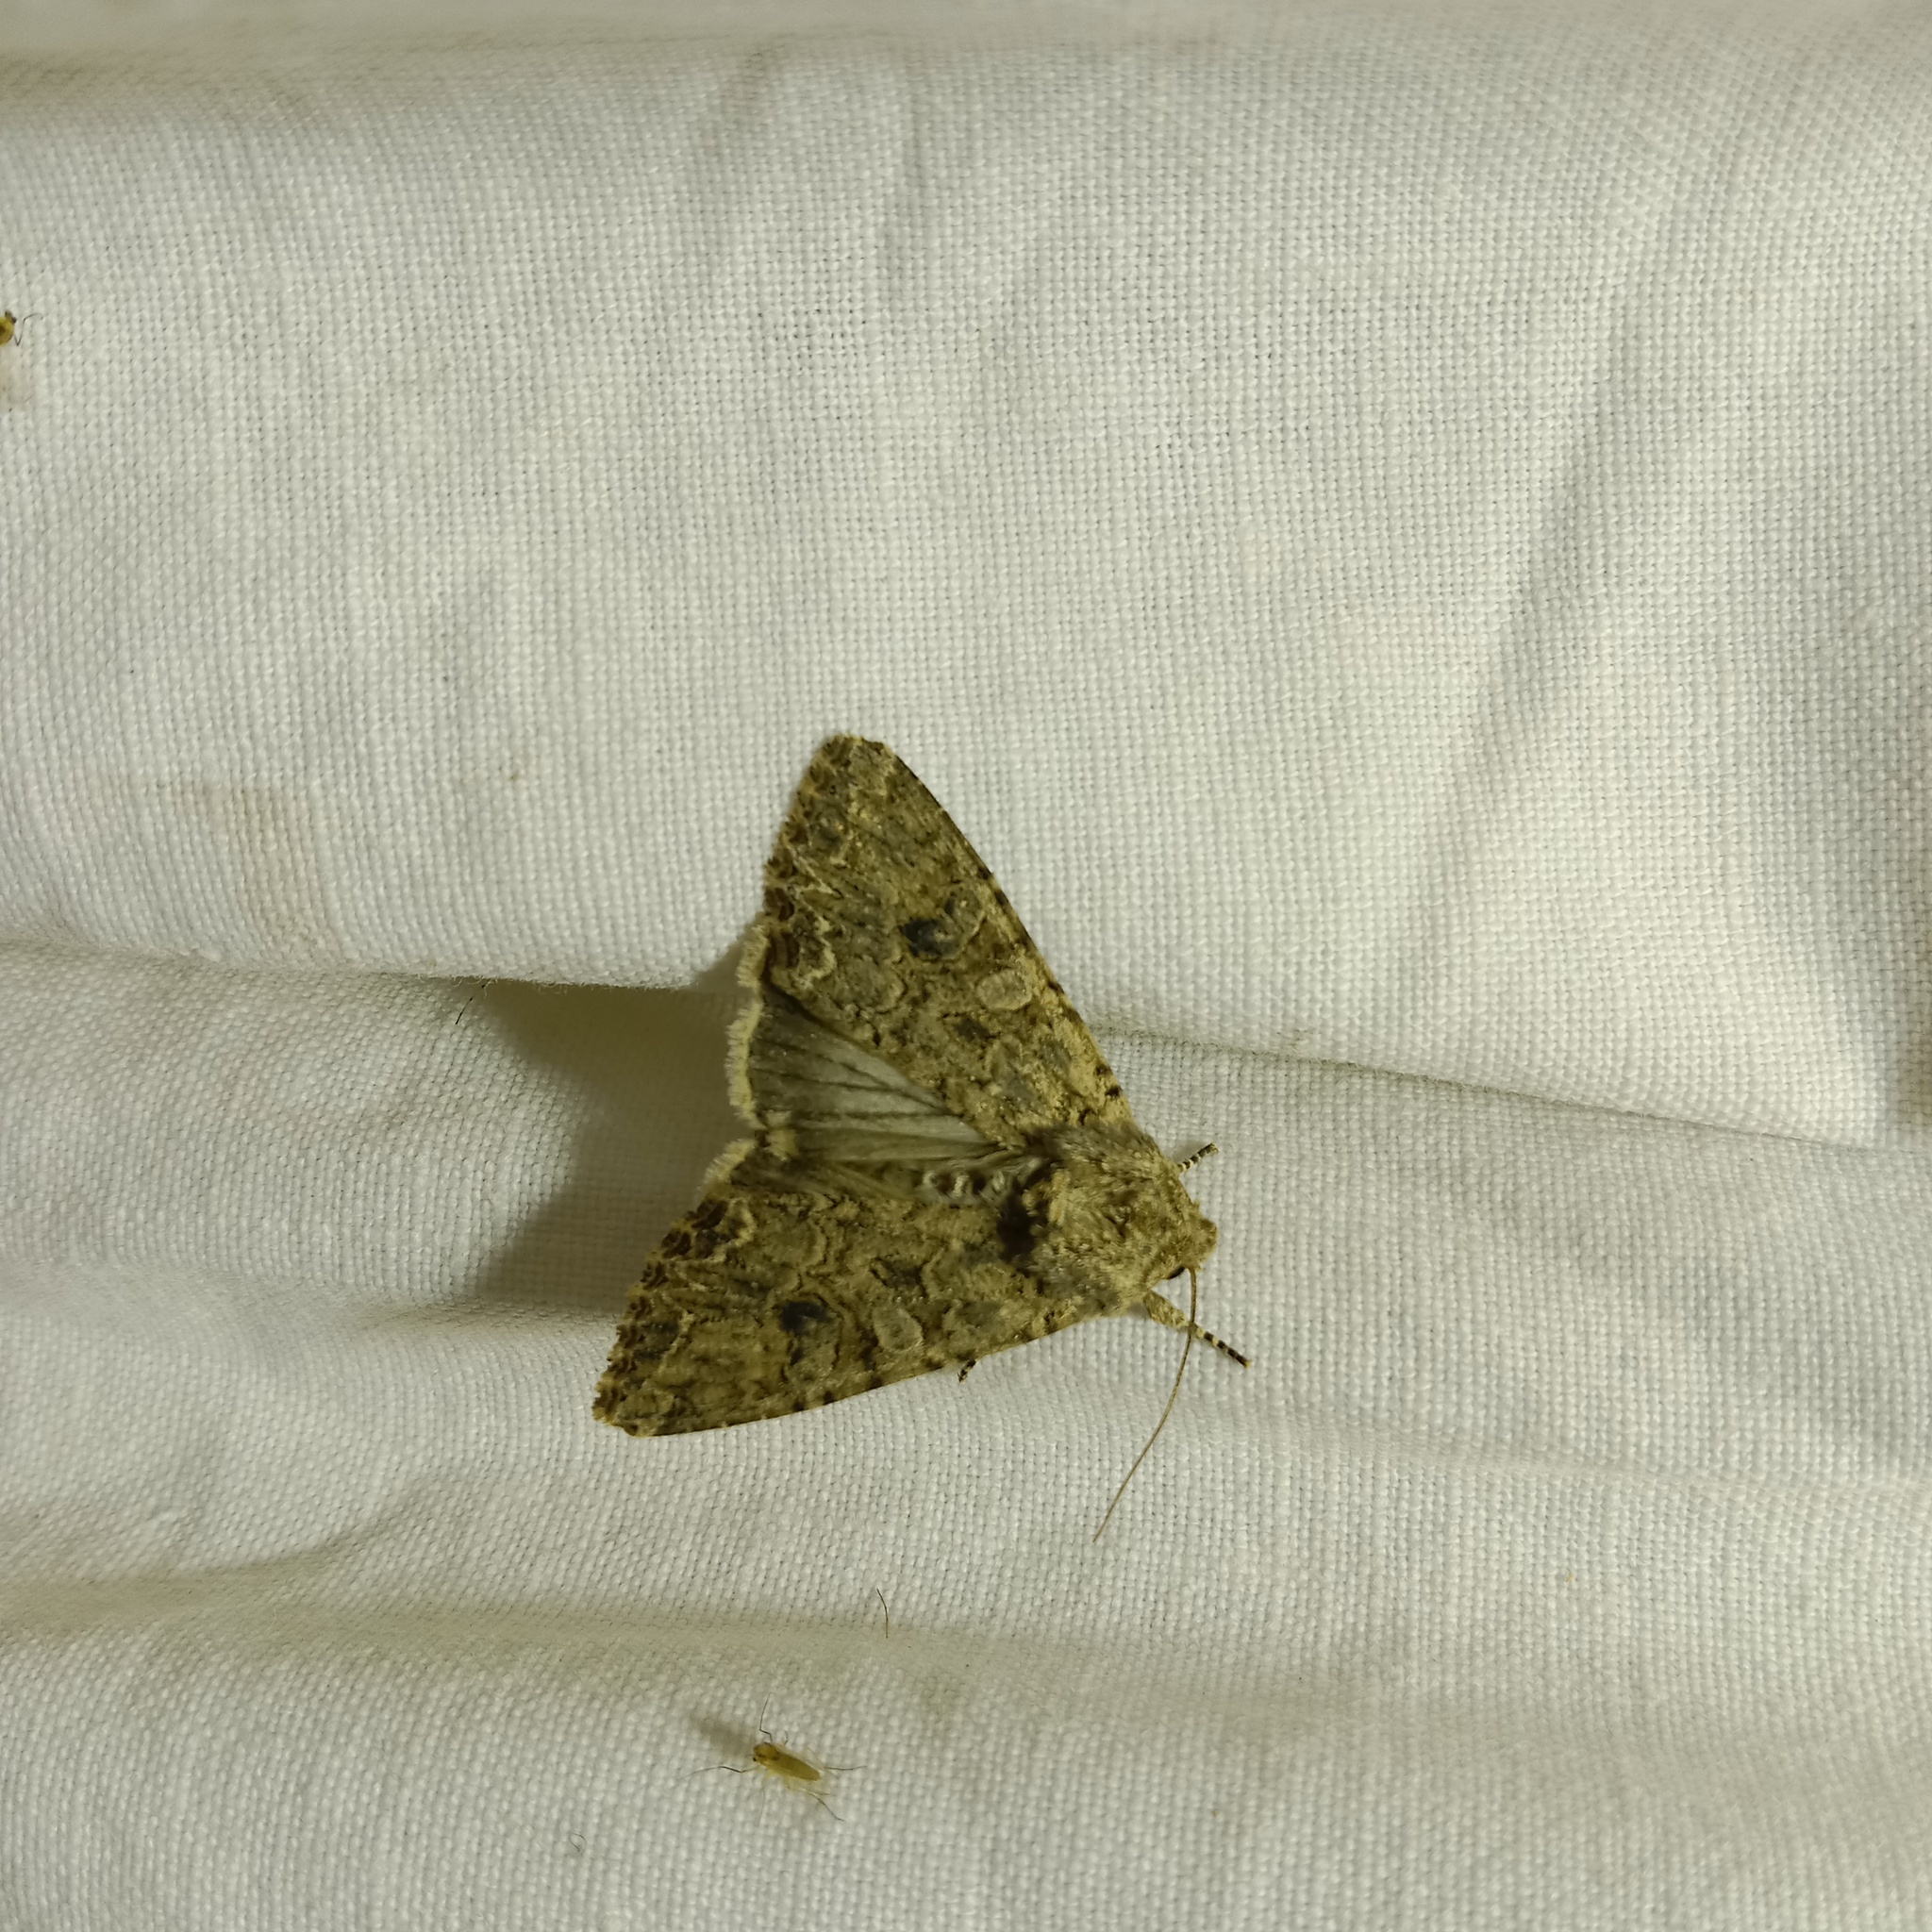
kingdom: Animalia
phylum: Arthropoda
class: Insecta
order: Lepidoptera
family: Noctuidae
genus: Anarta
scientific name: Anarta trifolii
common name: Clover cutworm moth
